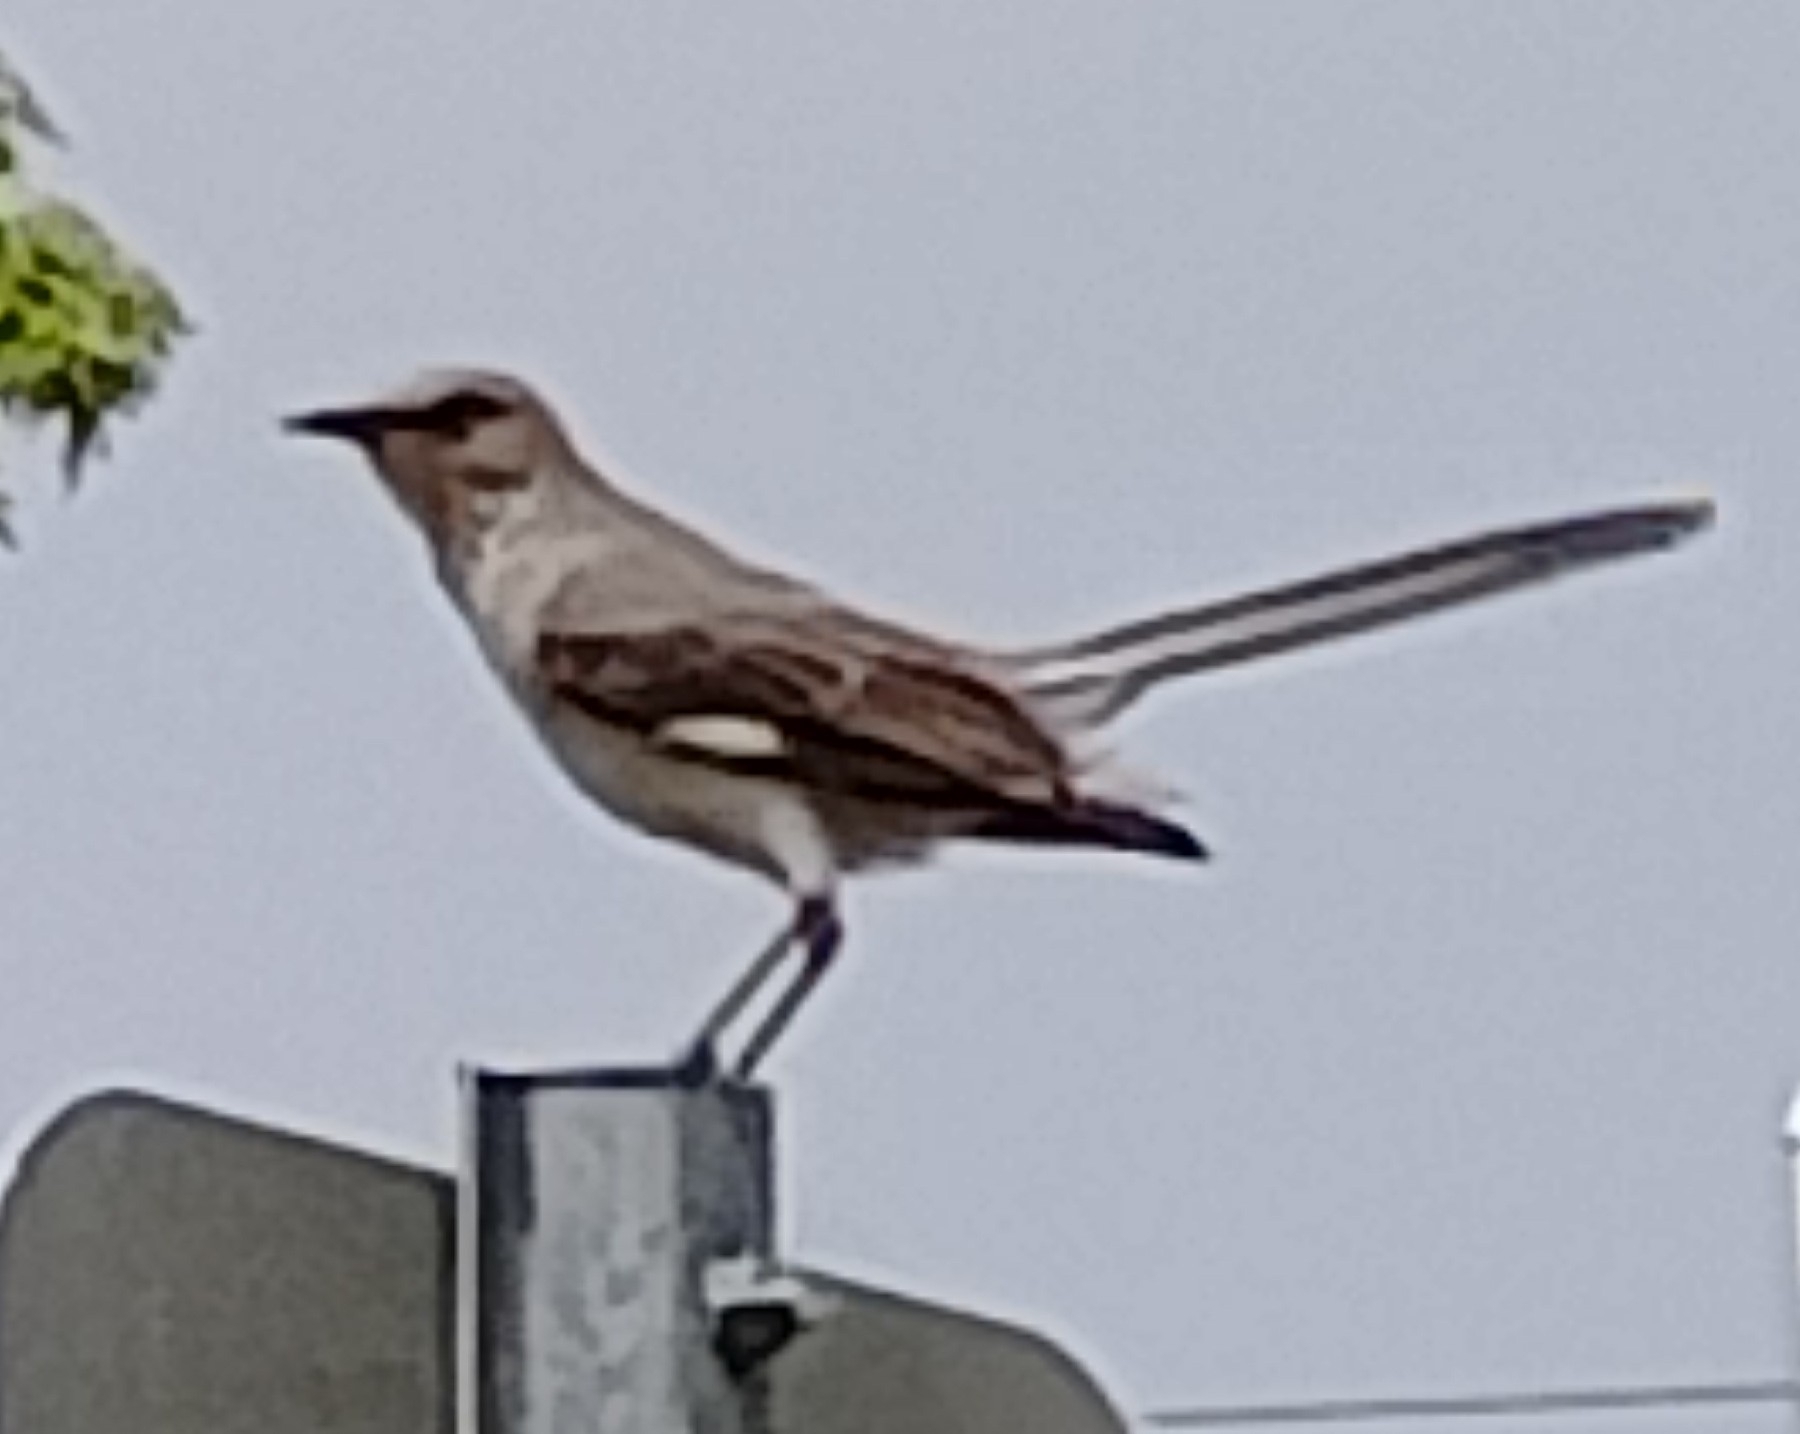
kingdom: Animalia
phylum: Chordata
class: Aves
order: Passeriformes
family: Mimidae
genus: Mimus
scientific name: Mimus polyglottos
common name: Northern mockingbird
